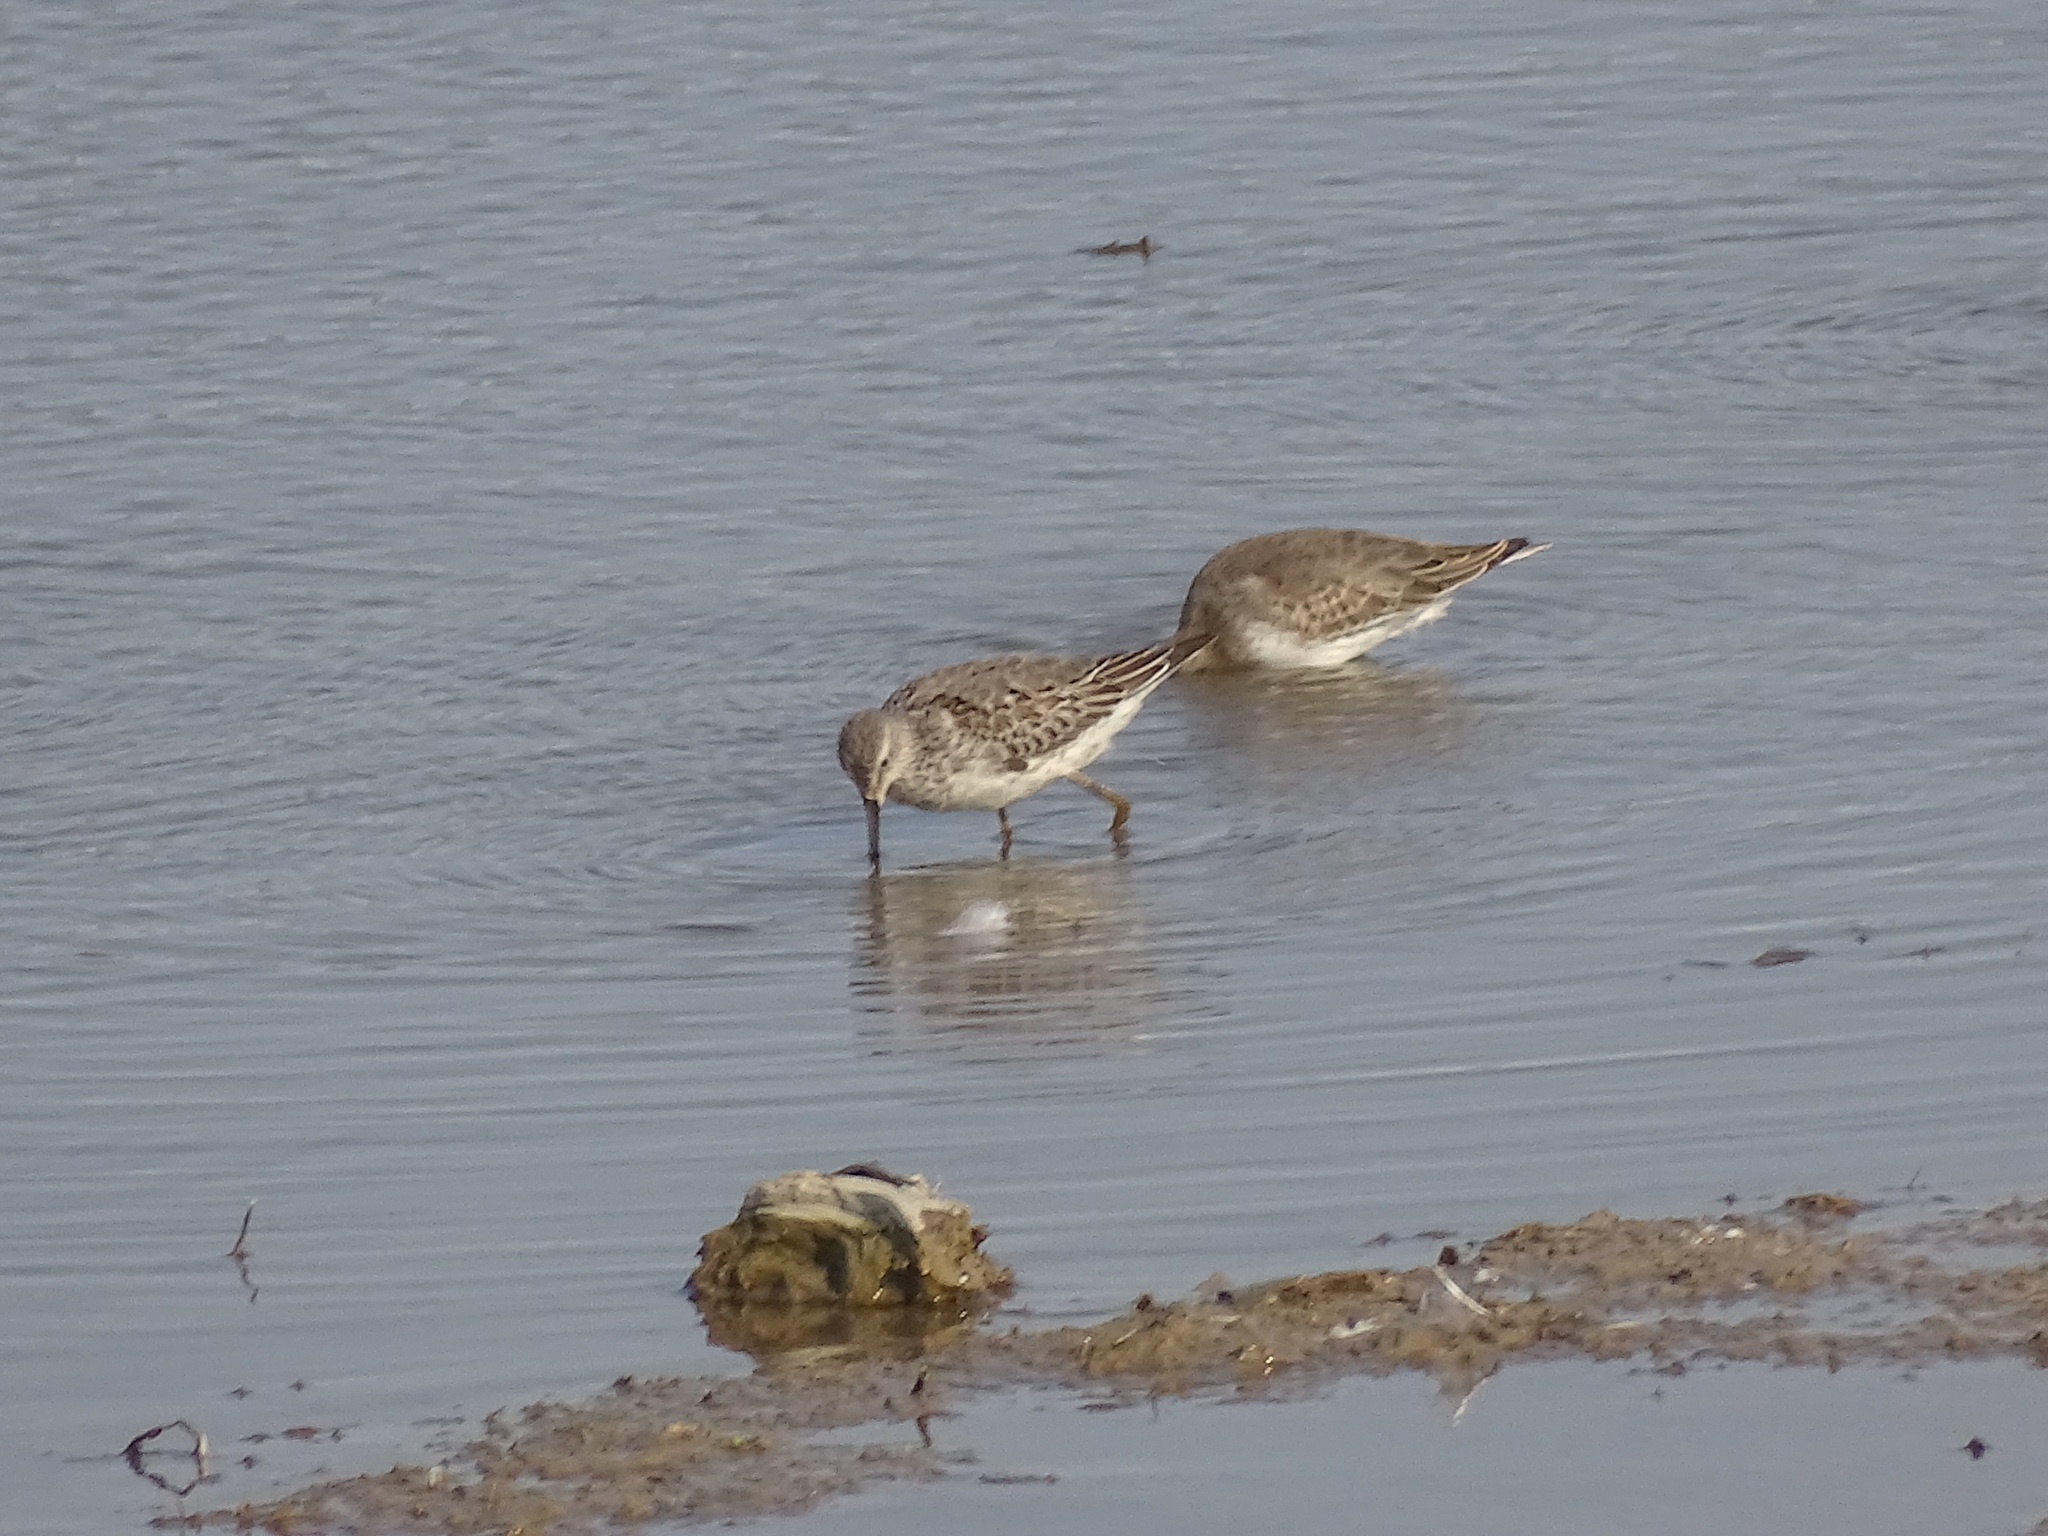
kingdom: Animalia
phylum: Chordata
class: Aves
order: Charadriiformes
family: Scolopacidae
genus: Calidris
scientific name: Calidris himantopus
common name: Stilt sandpiper
